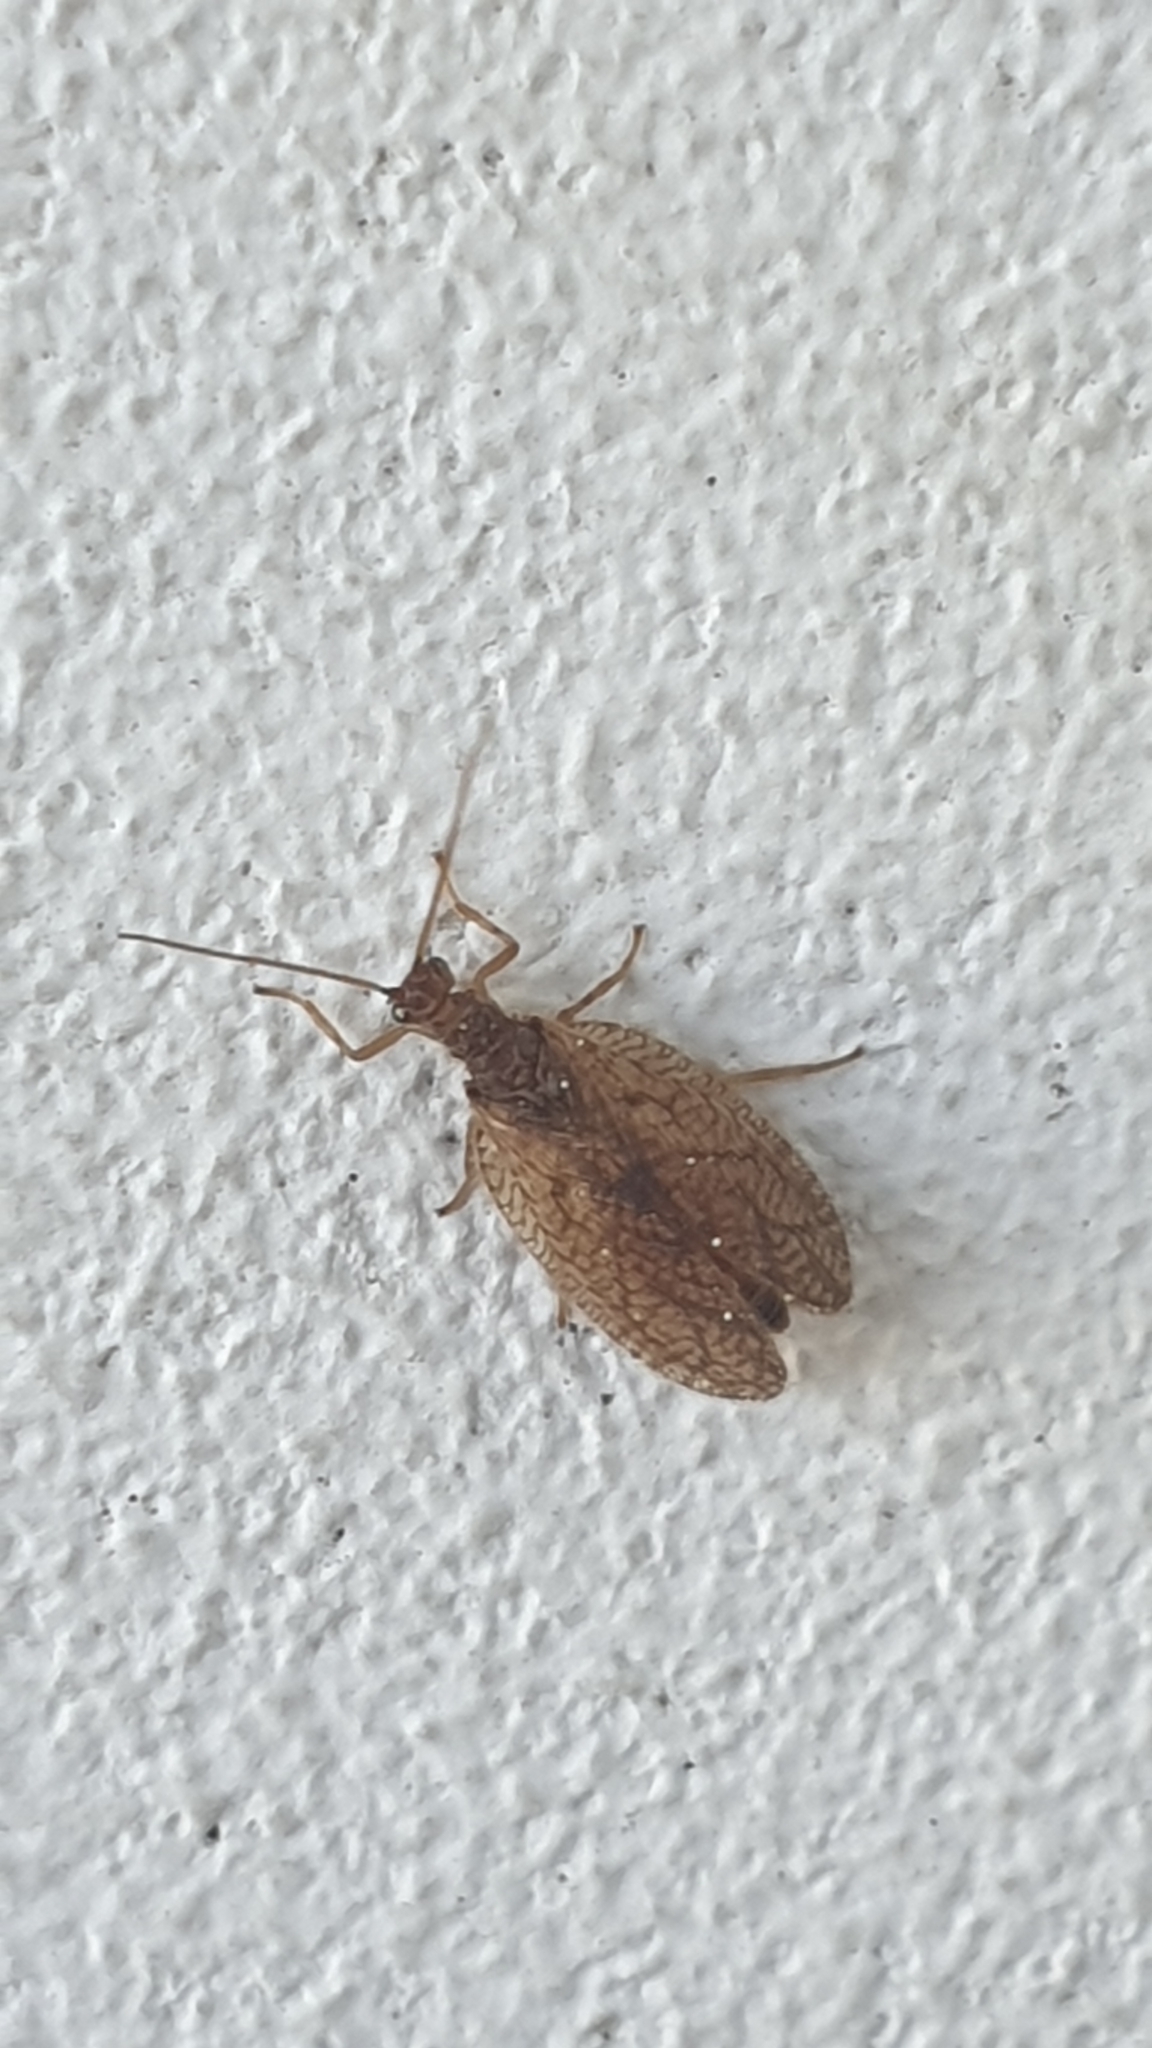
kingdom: Animalia
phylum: Arthropoda
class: Insecta
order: Neuroptera
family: Hemerobiidae
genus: Micromus
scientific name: Micromus angulatus
